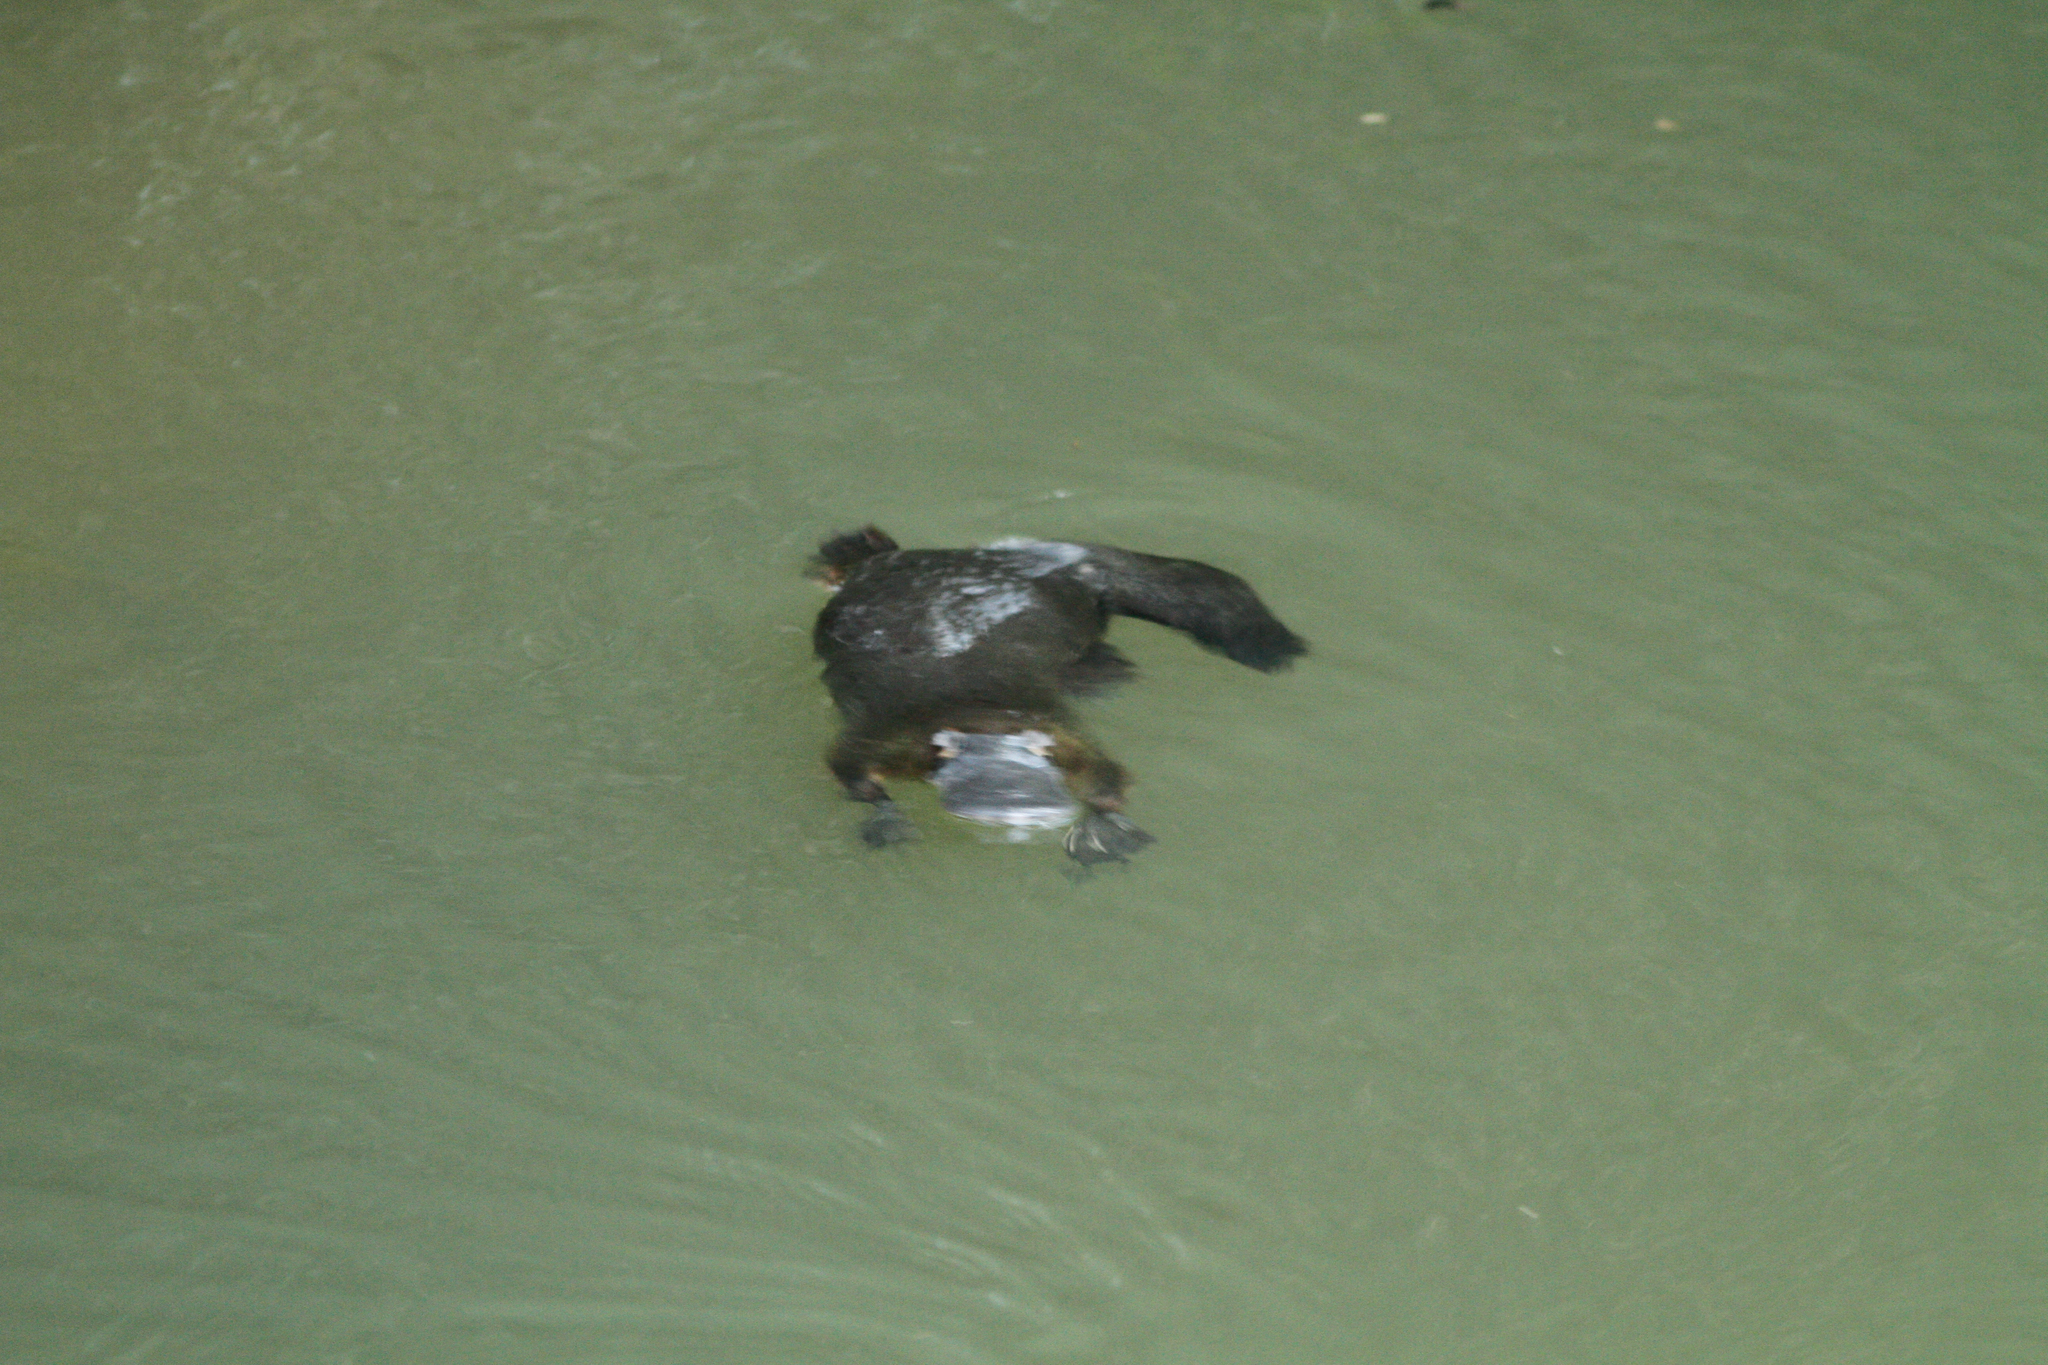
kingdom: Animalia
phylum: Chordata
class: Mammalia
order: Monotremata
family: Ornithorhynchidae
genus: Ornithorhynchus
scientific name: Ornithorhynchus anatinus
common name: Platypus
